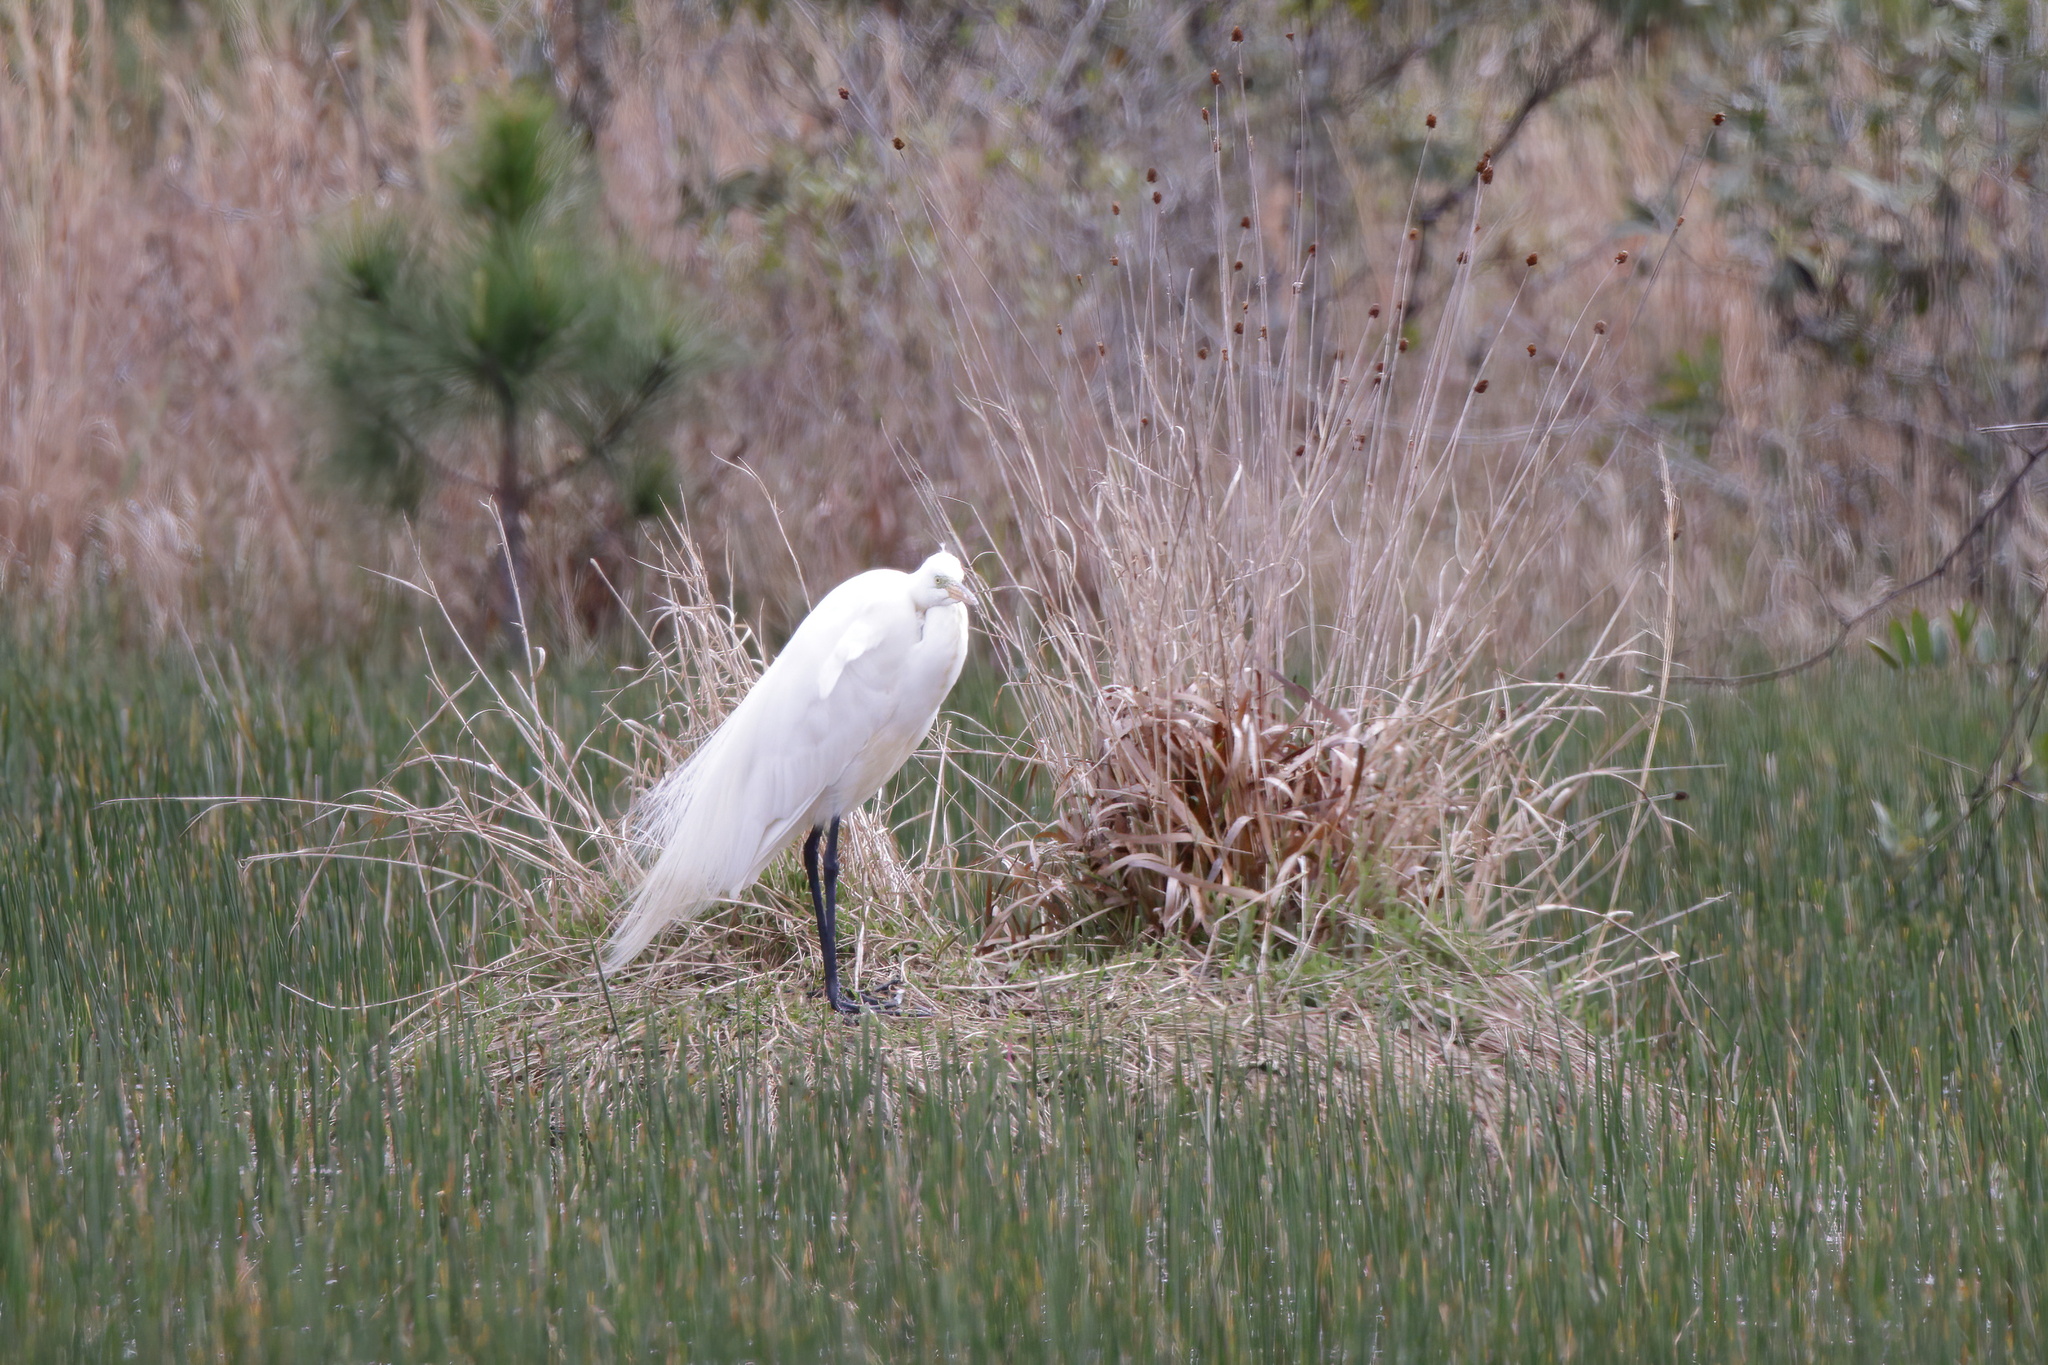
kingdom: Animalia
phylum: Chordata
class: Aves
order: Pelecaniformes
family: Ardeidae
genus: Ardea
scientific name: Ardea alba
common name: Great egret
